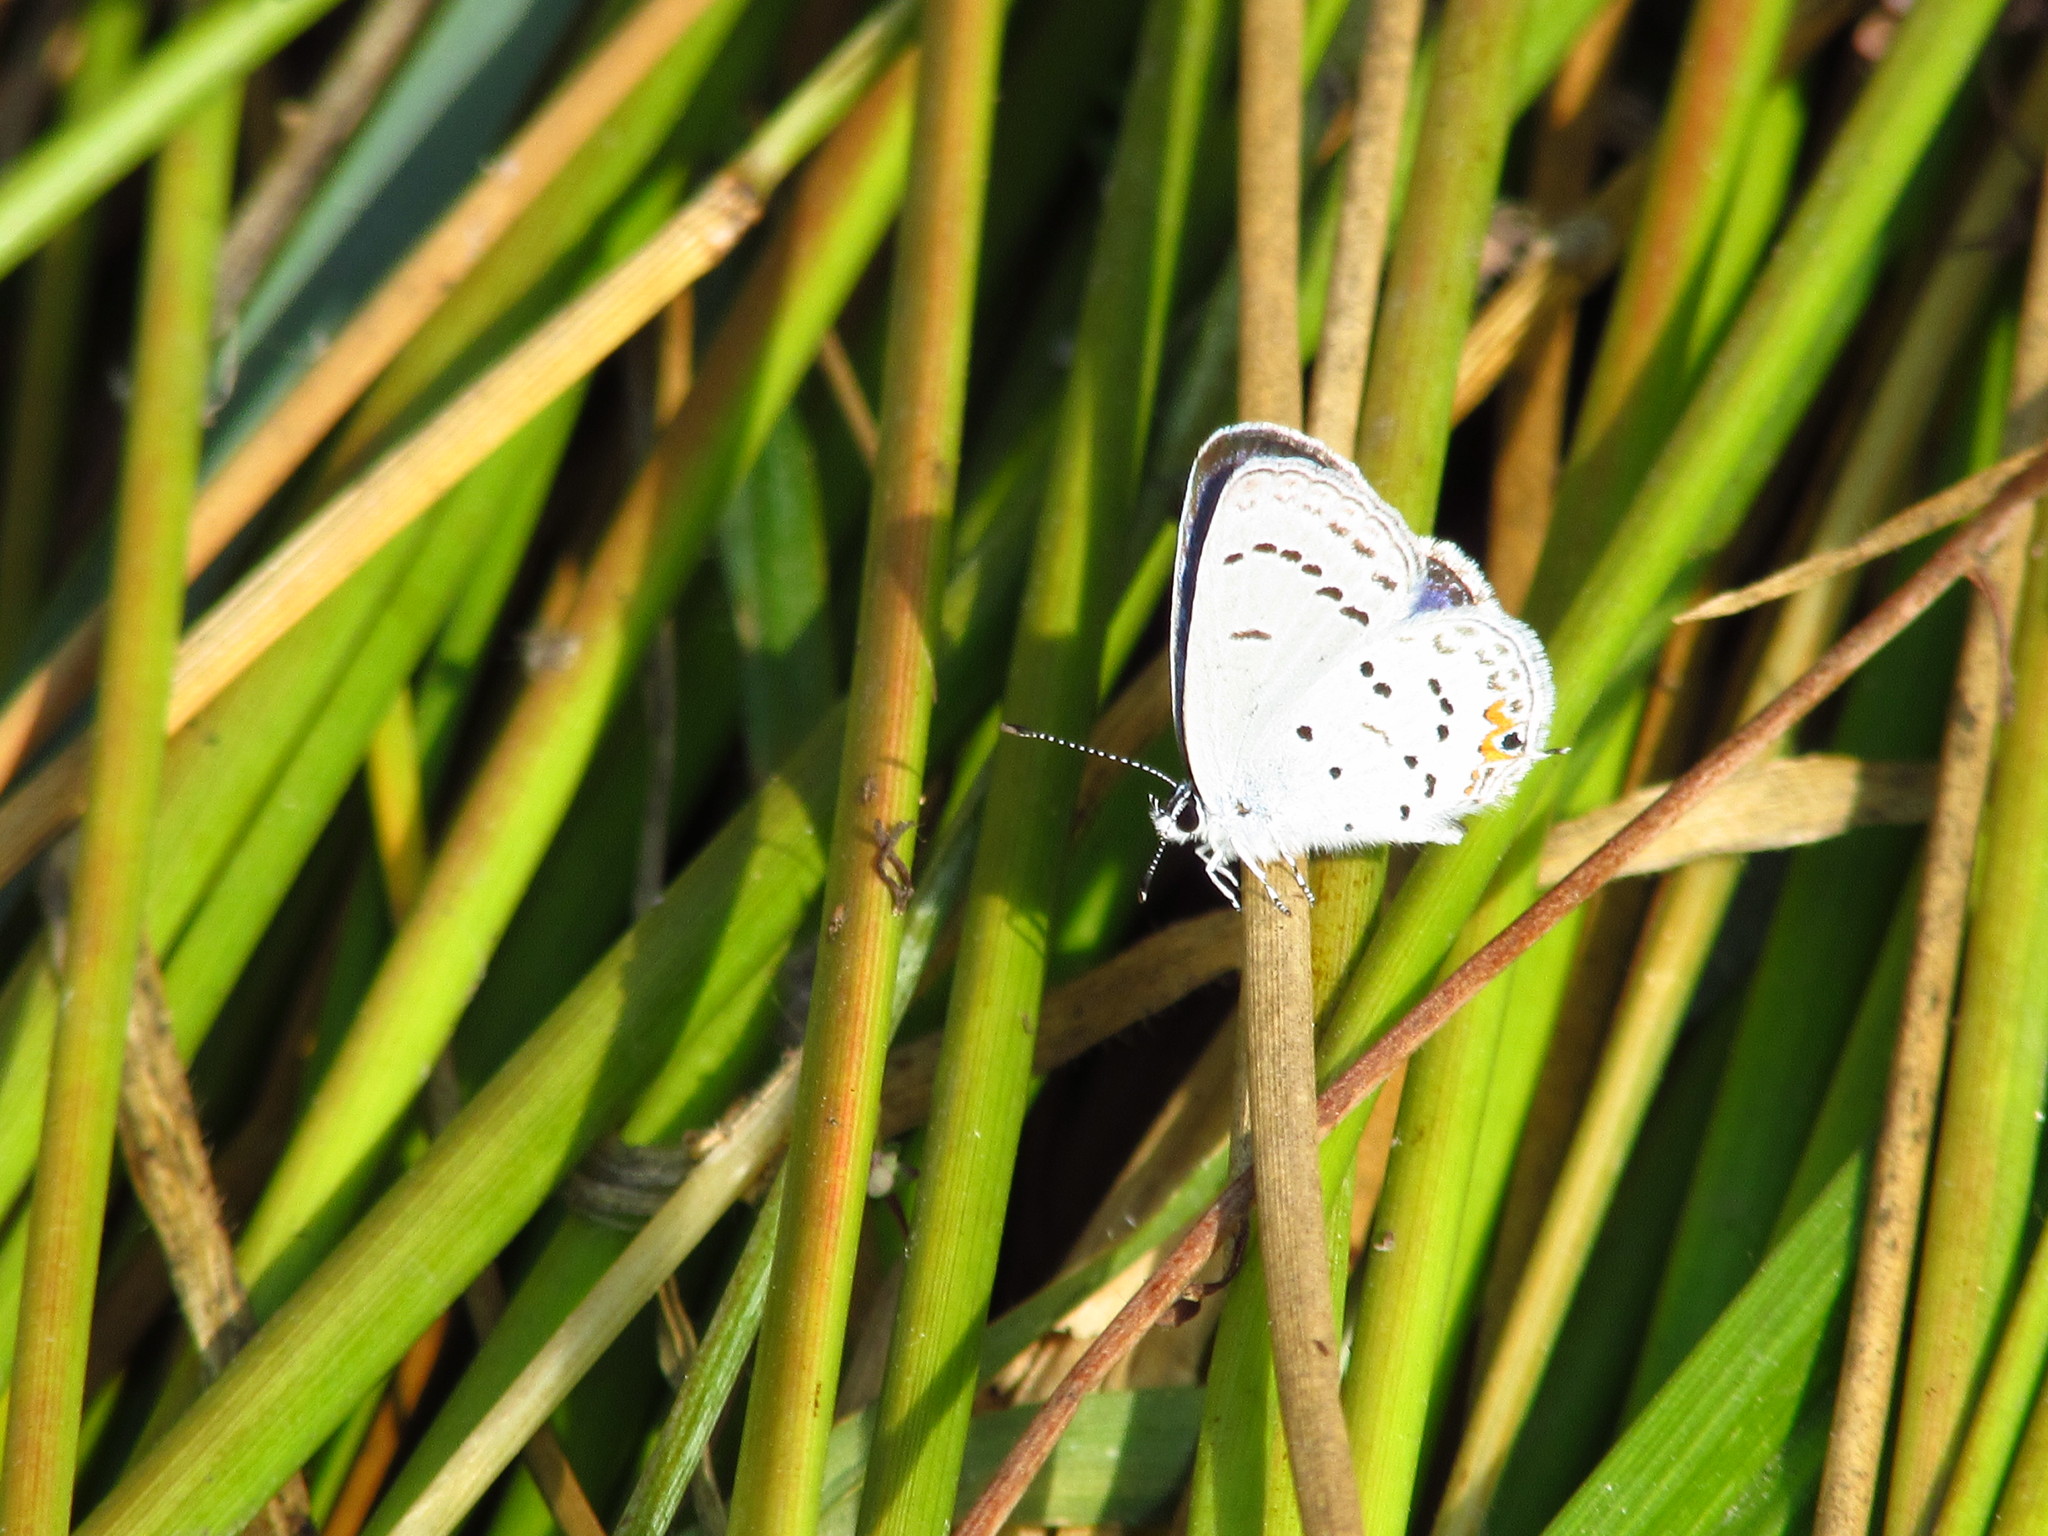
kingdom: Animalia
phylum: Arthropoda
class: Insecta
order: Lepidoptera
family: Lycaenidae
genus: Elkalyce
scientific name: Elkalyce comyntas
